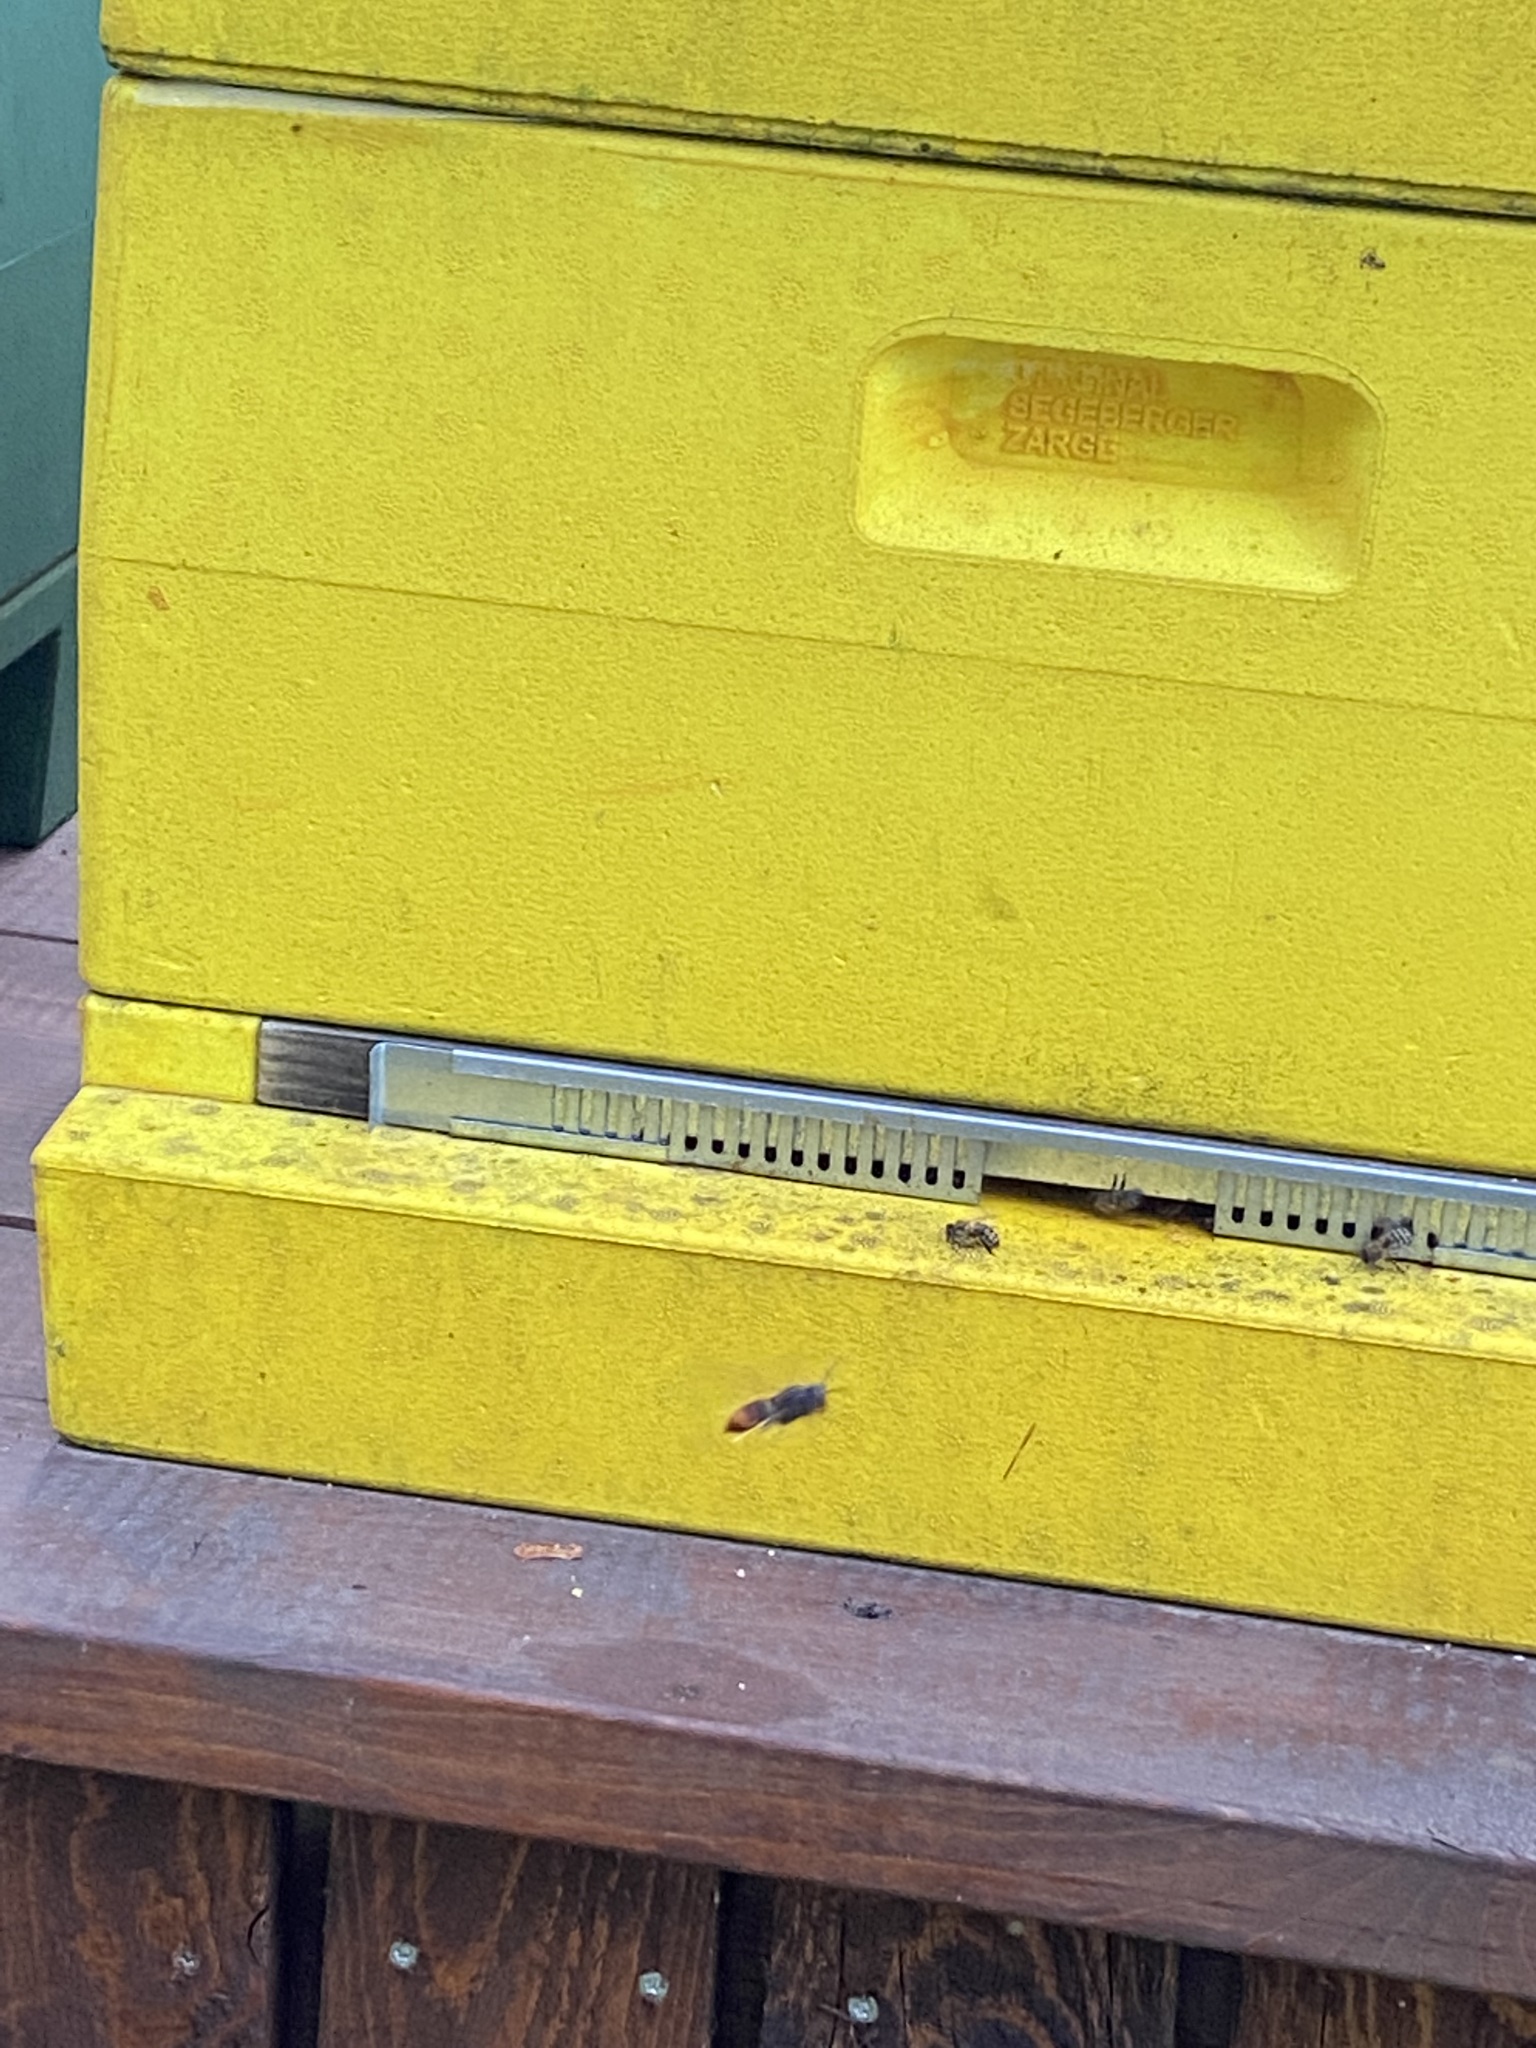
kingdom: Animalia
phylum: Arthropoda
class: Insecta
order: Hymenoptera
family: Vespidae
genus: Vespa
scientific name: Vespa velutina
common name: Asian hornet
